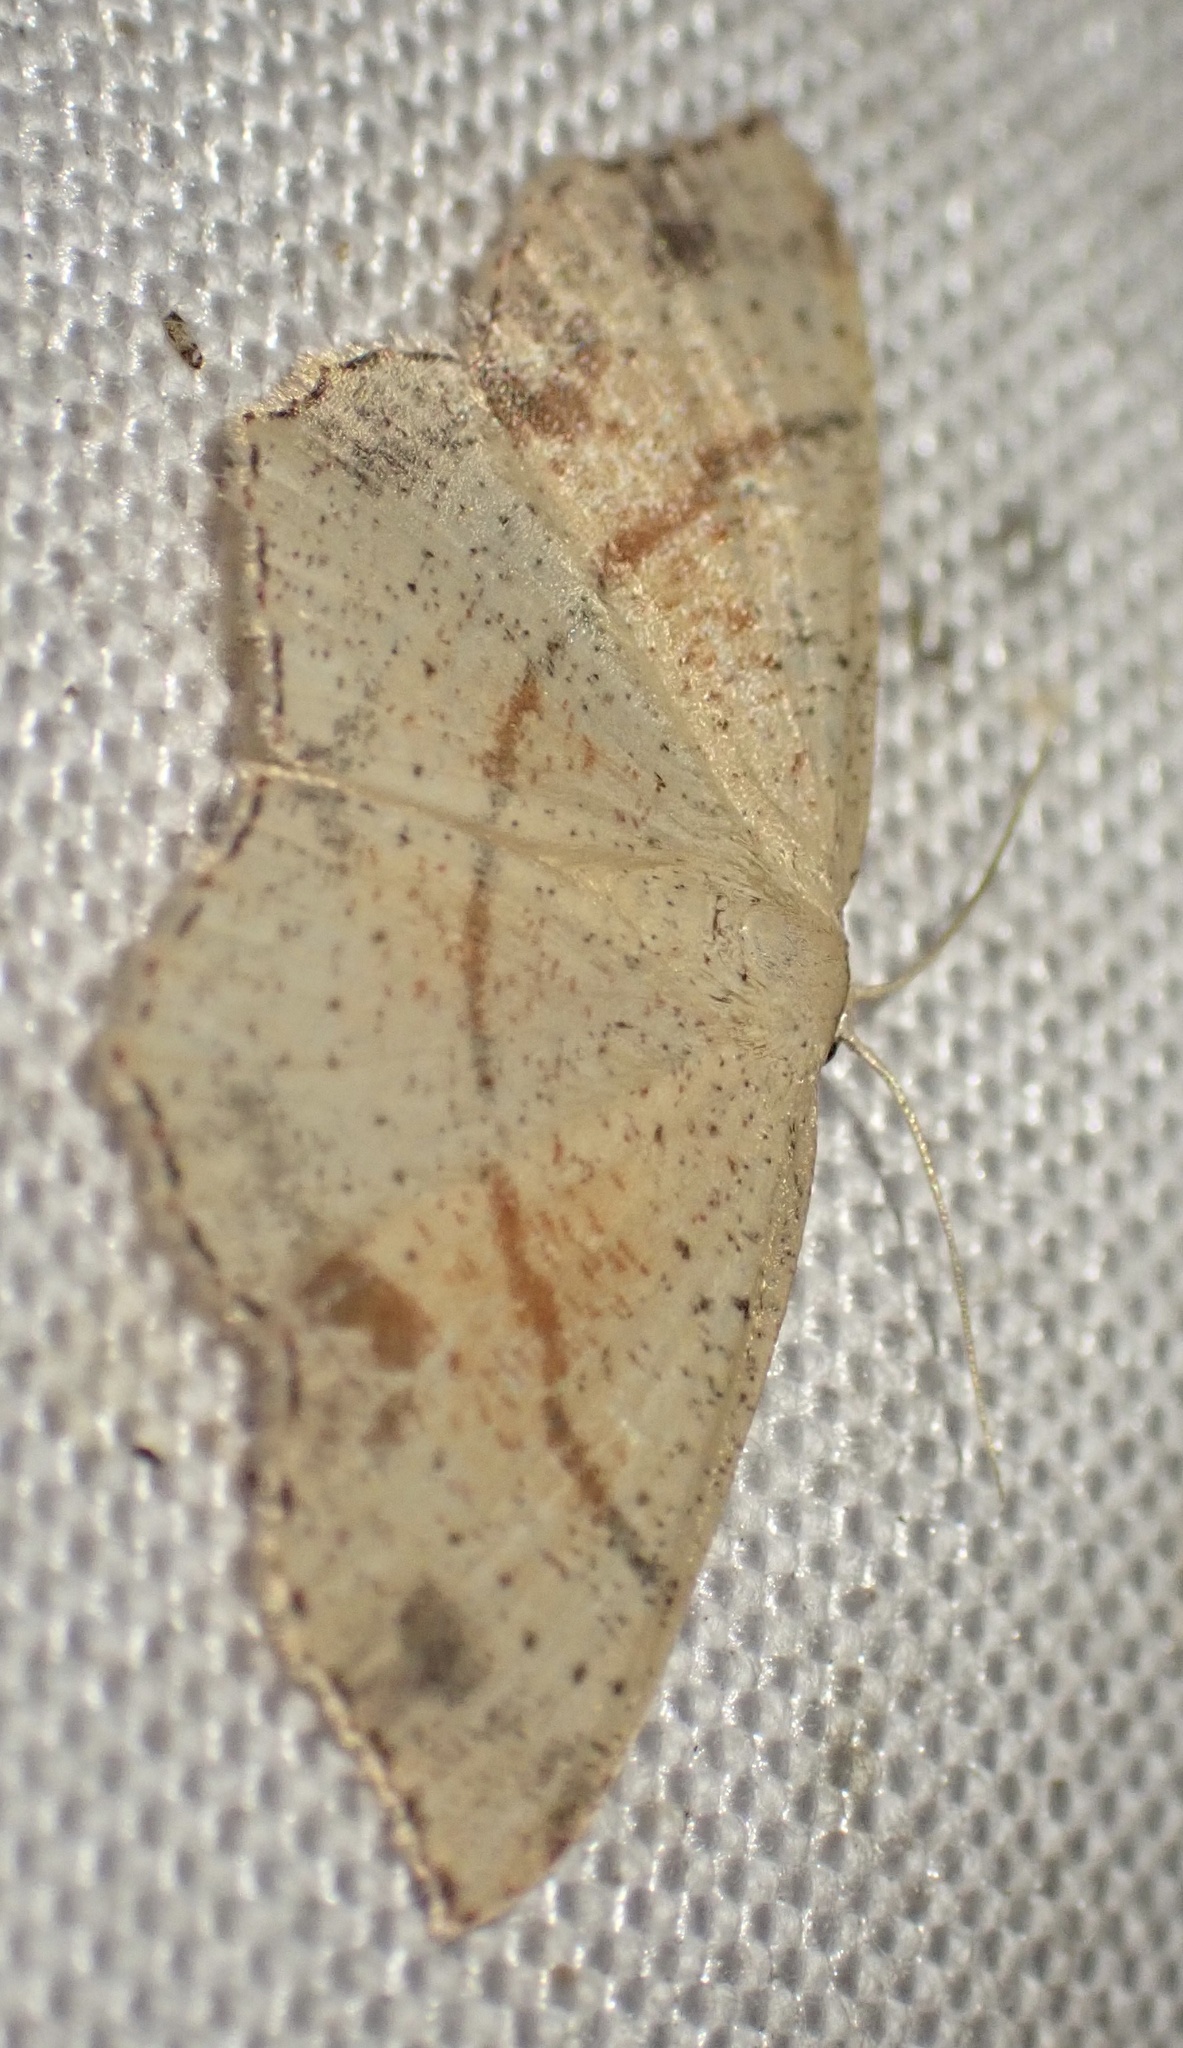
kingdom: Animalia
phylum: Arthropoda
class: Insecta
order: Lepidoptera
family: Geometridae
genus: Cyclophora
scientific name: Cyclophora punctaria
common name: Maiden's blush
